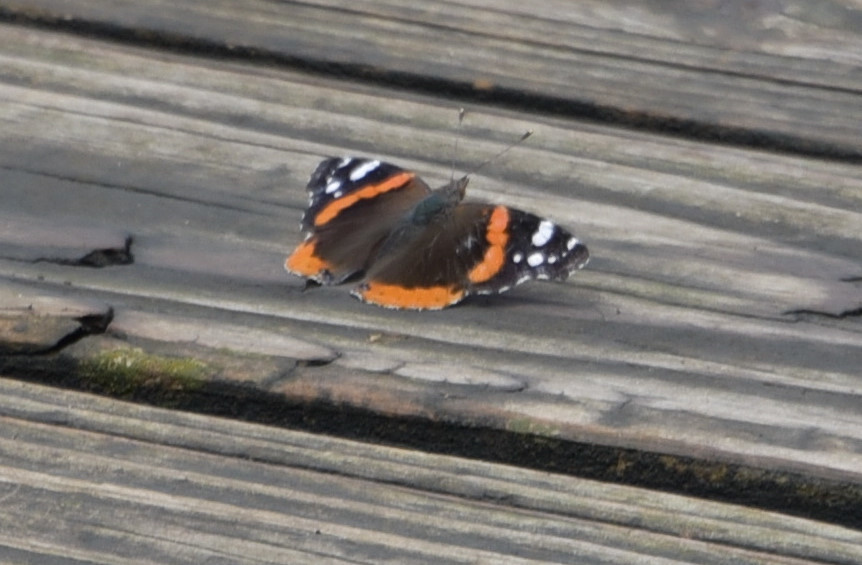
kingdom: Animalia
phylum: Arthropoda
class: Insecta
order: Lepidoptera
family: Nymphalidae
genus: Vanessa
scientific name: Vanessa atalanta
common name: Red admiral
